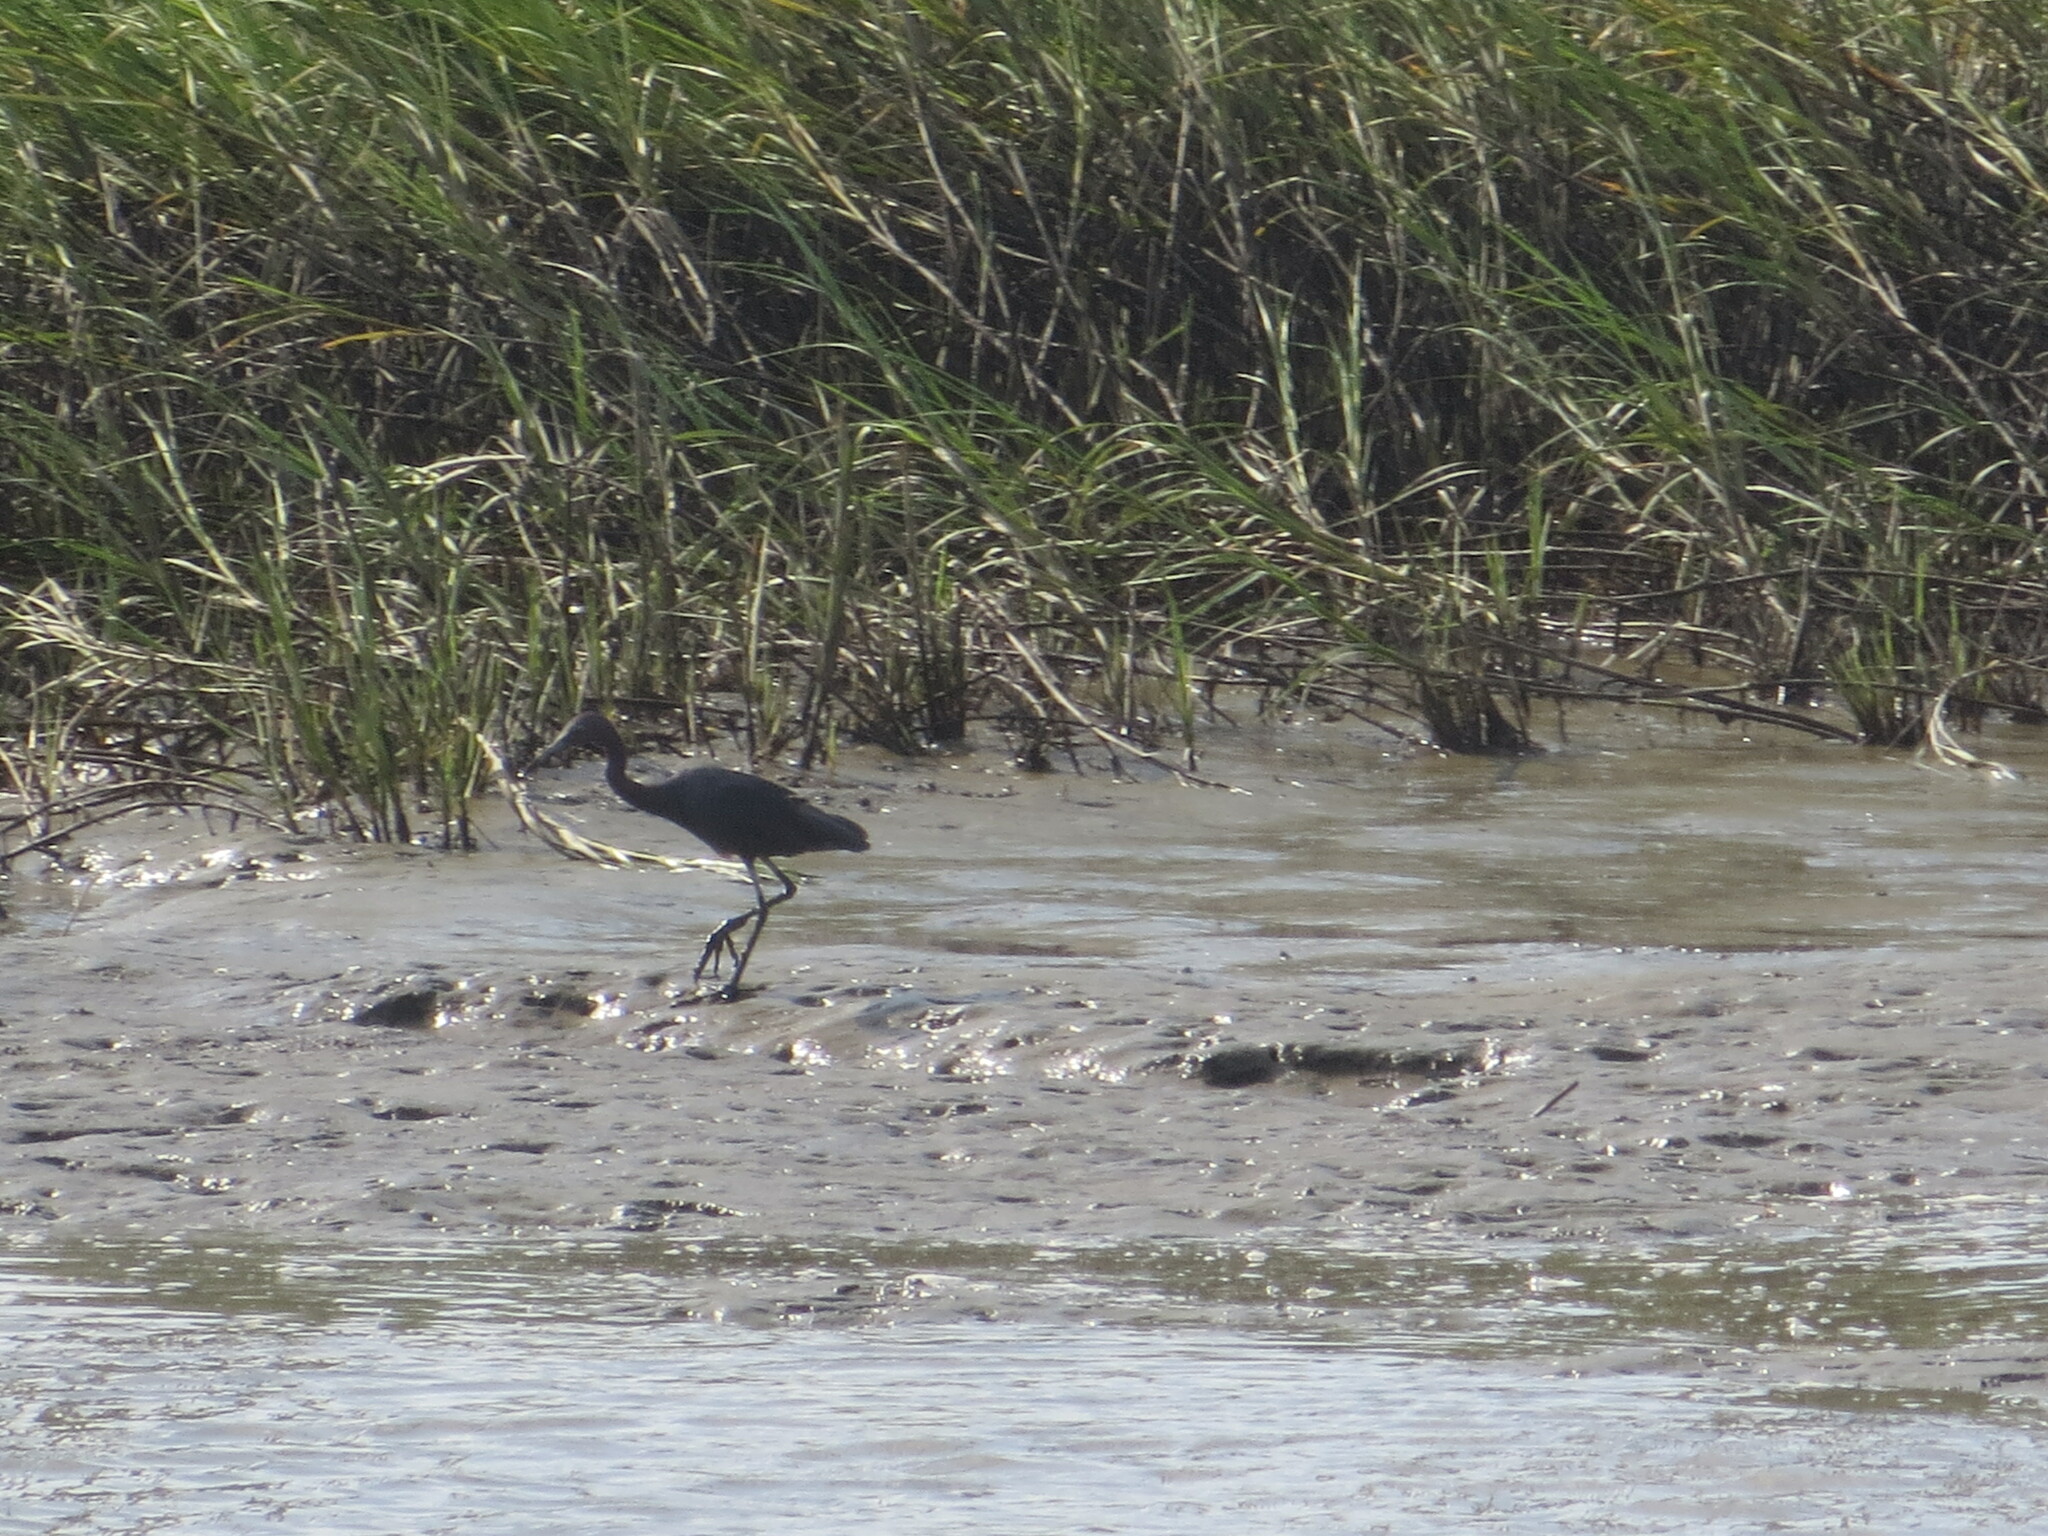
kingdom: Animalia
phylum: Chordata
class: Aves
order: Pelecaniformes
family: Ardeidae
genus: Egretta
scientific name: Egretta caerulea
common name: Little blue heron
